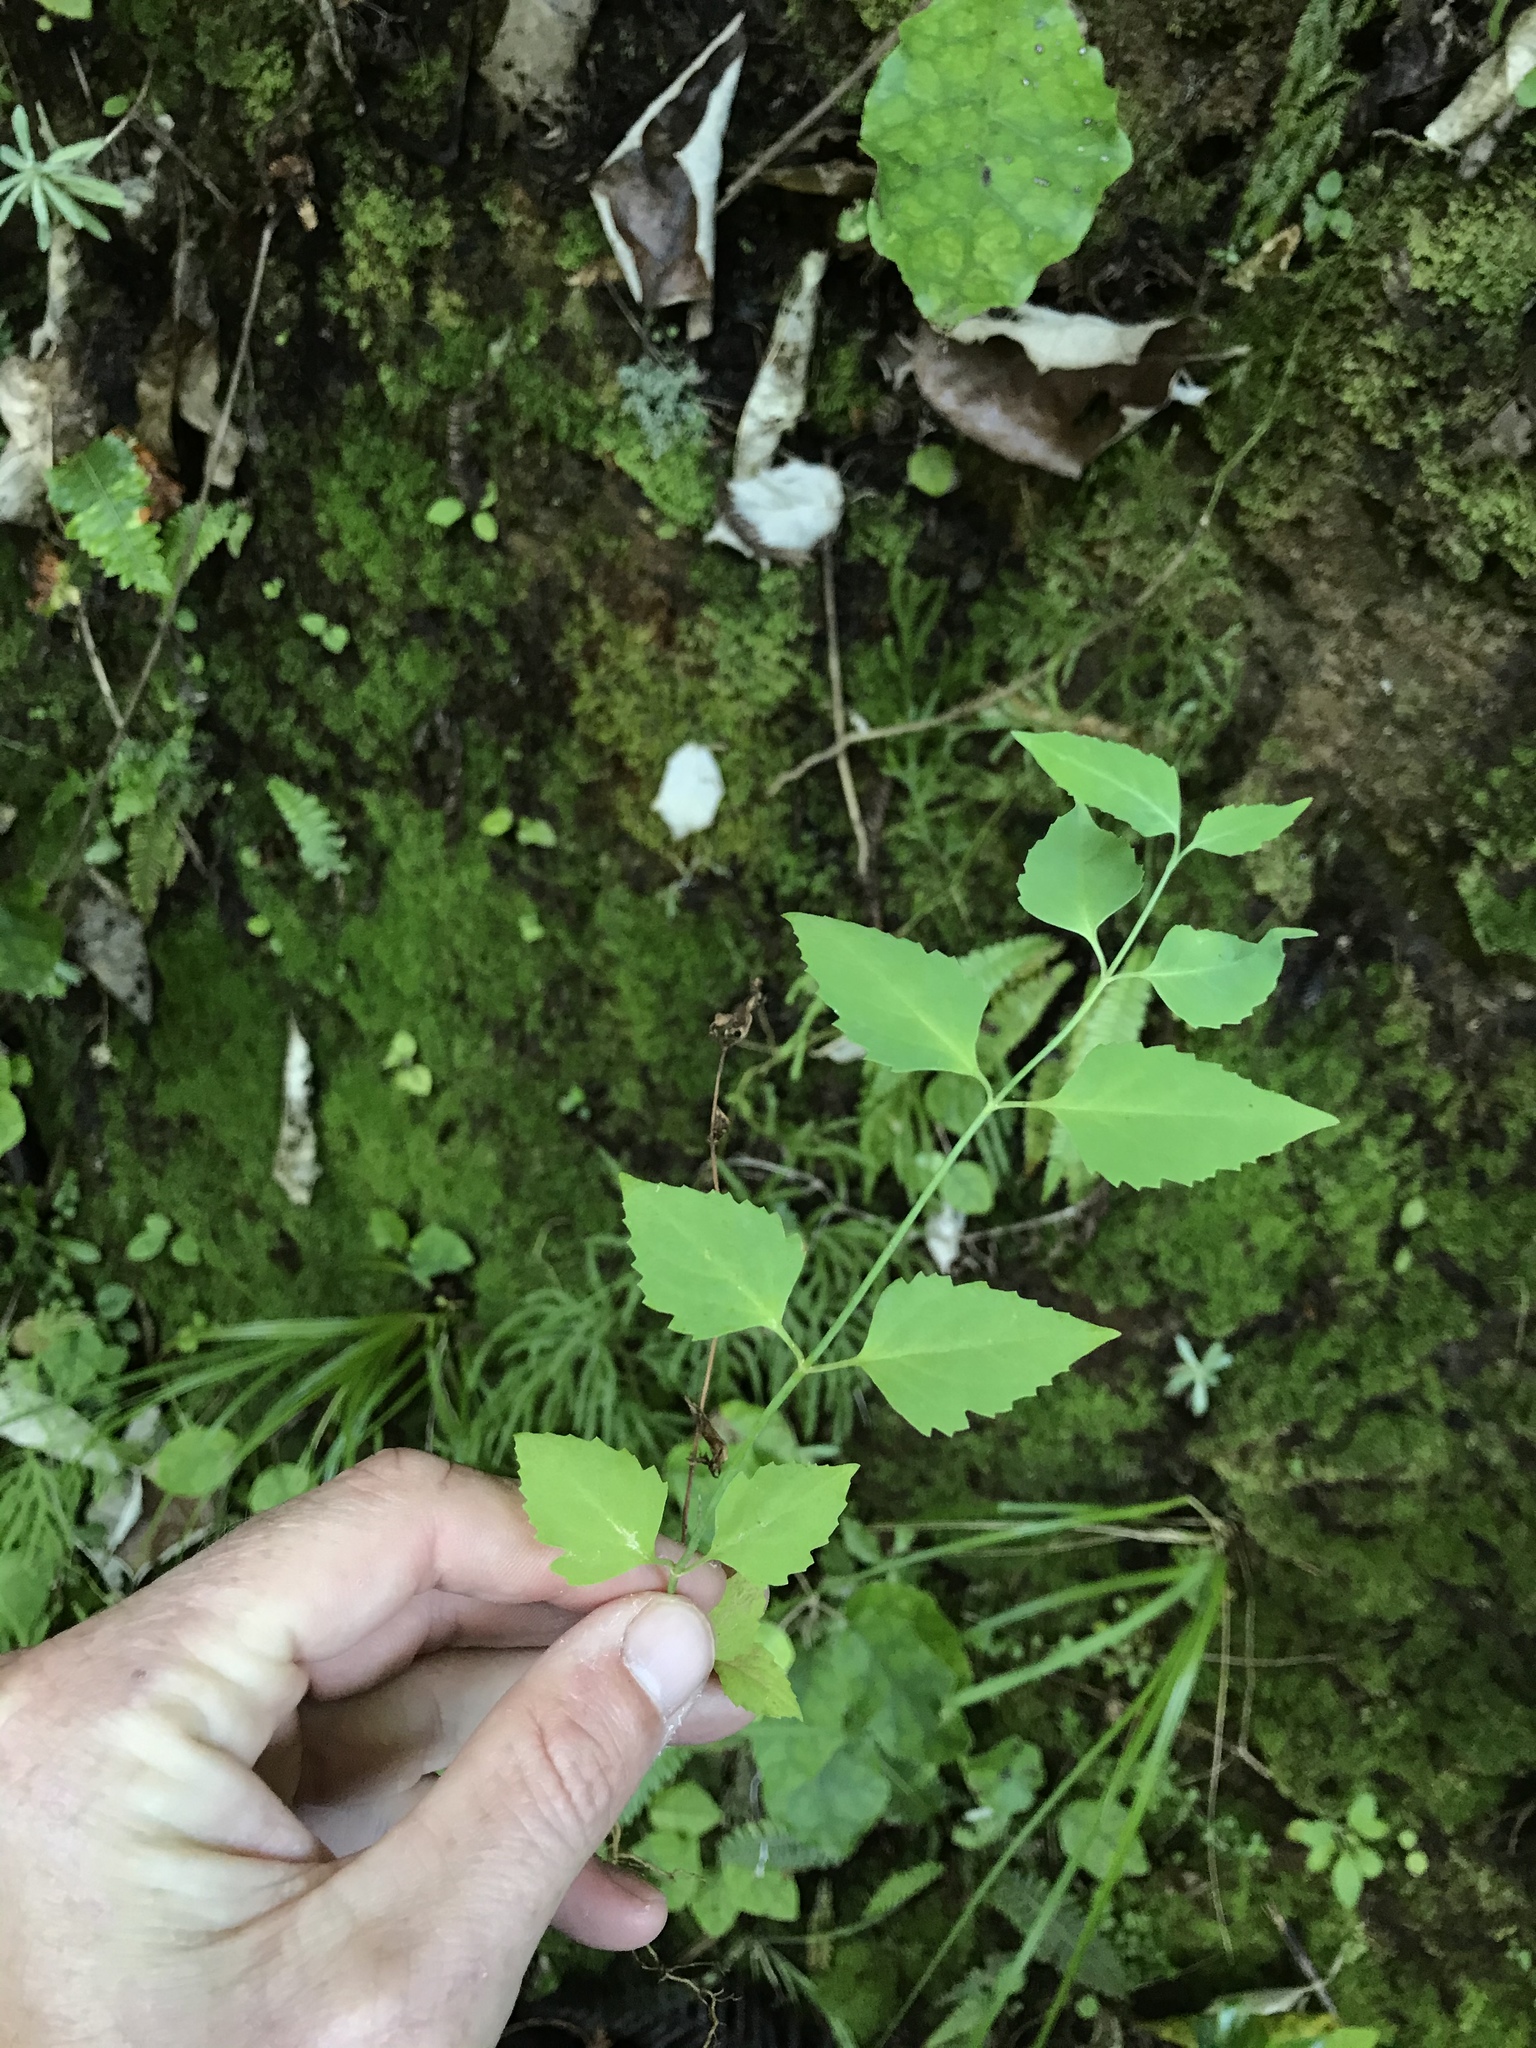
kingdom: Plantae
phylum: Tracheophyta
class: Magnoliopsida
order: Dipsacales
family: Caprifoliaceae
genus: Leycesteria
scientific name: Leycesteria formosa
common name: Himalayan honeysuckle
